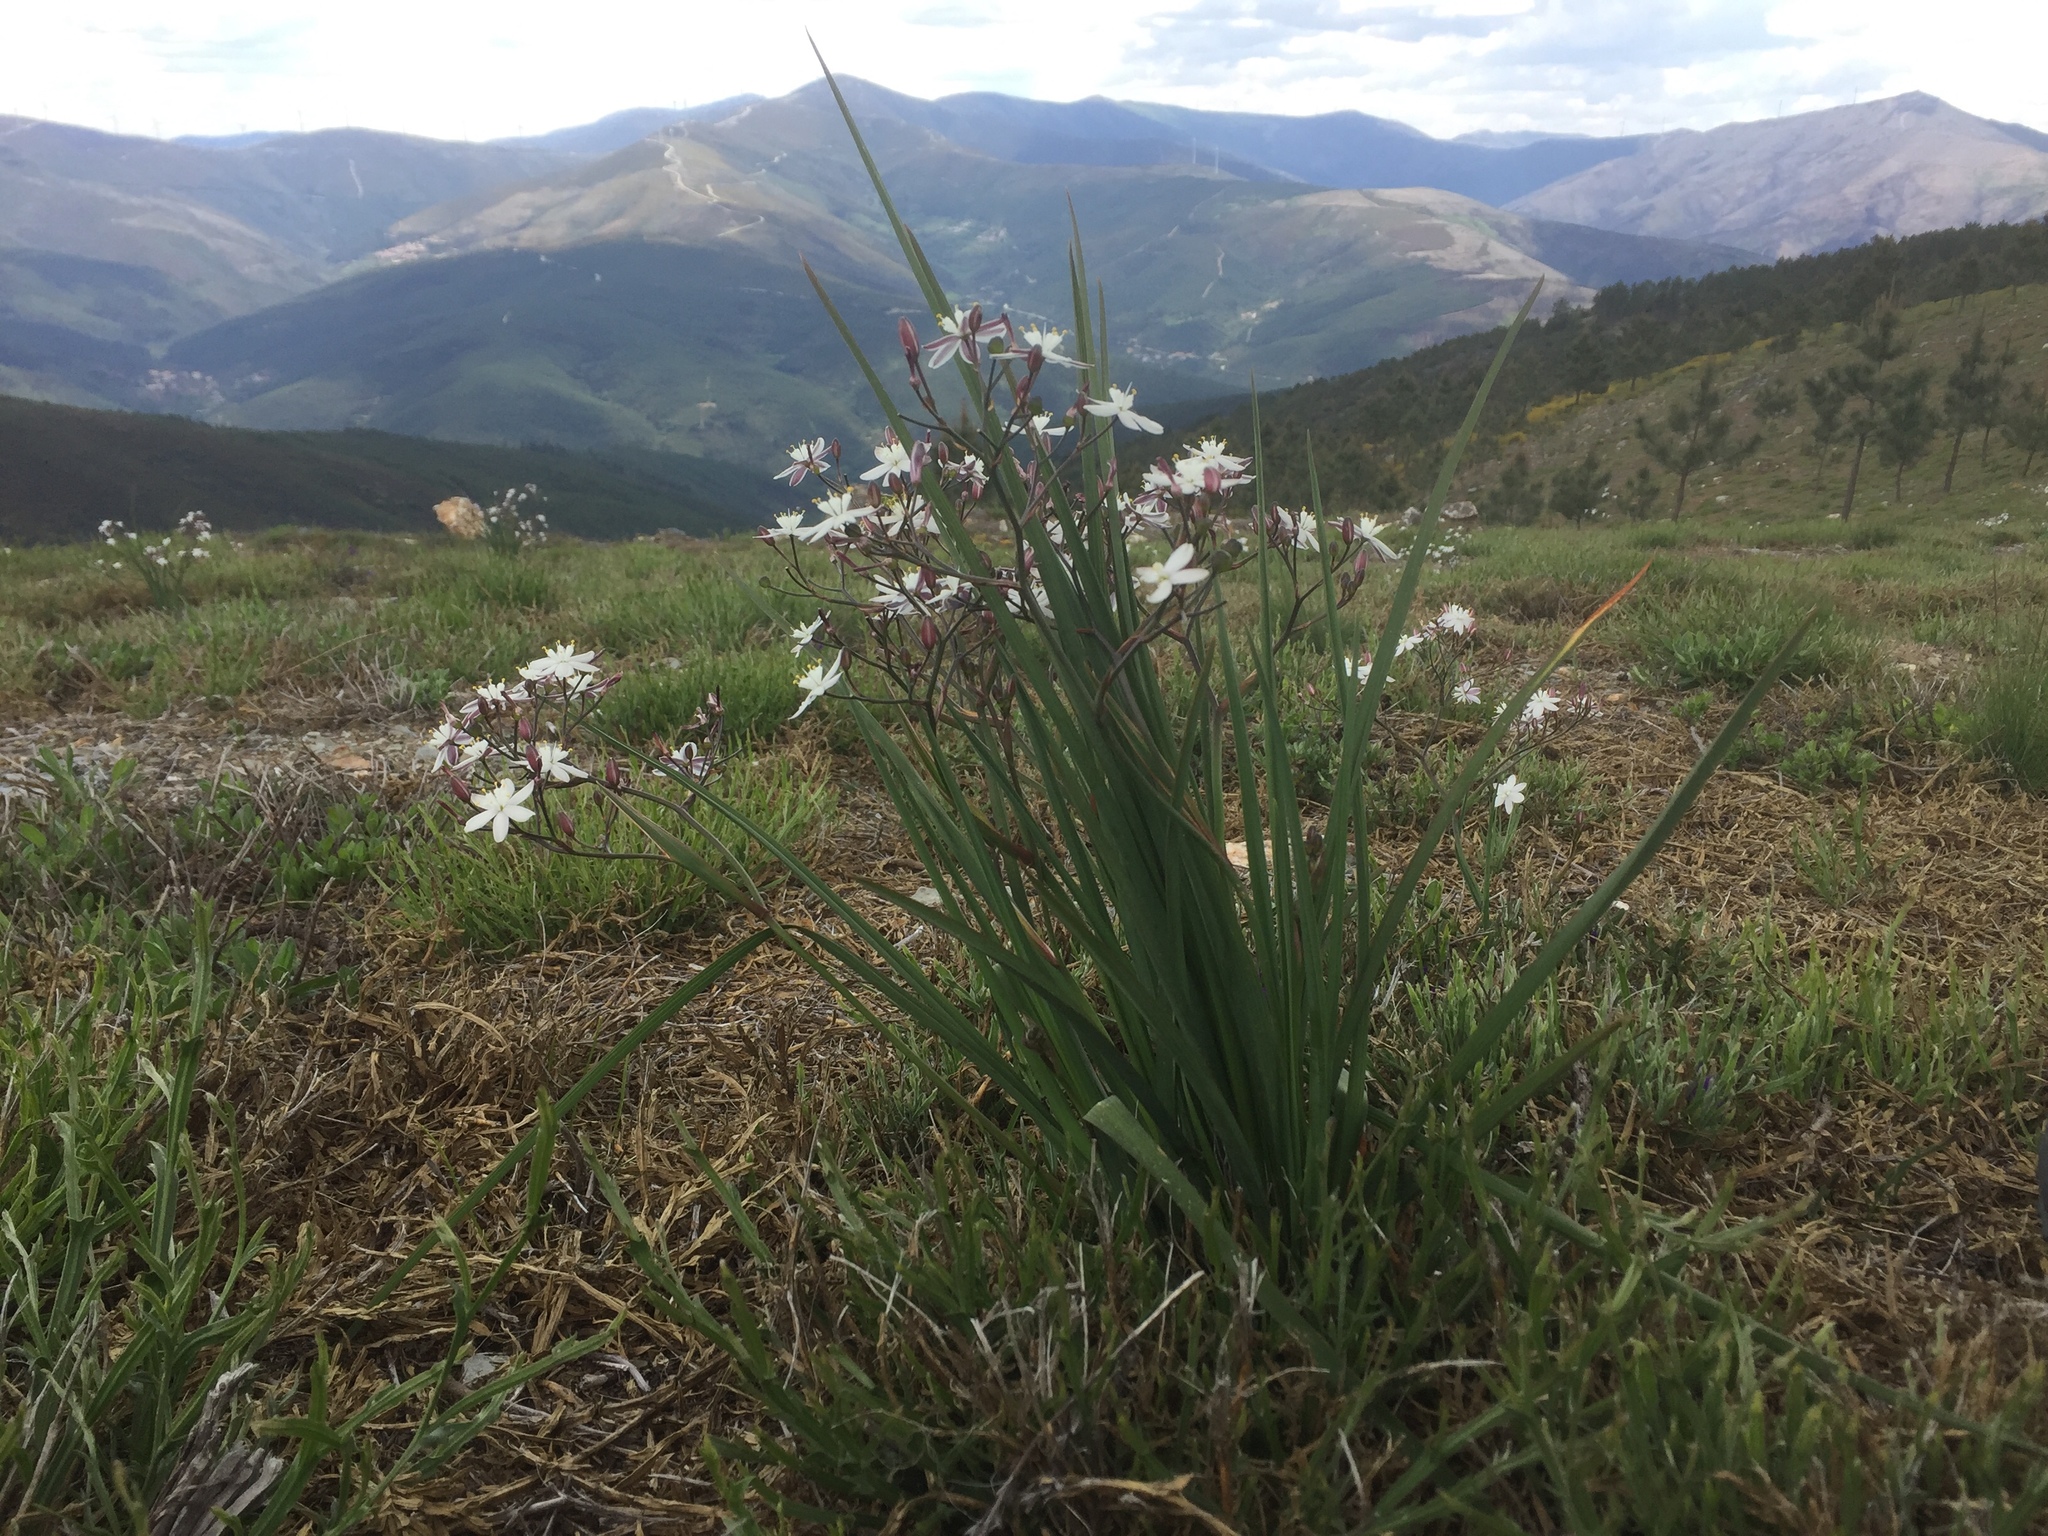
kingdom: Plantae
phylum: Tracheophyta
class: Liliopsida
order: Asparagales
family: Asphodelaceae
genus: Simethis
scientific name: Simethis mattiazzii
